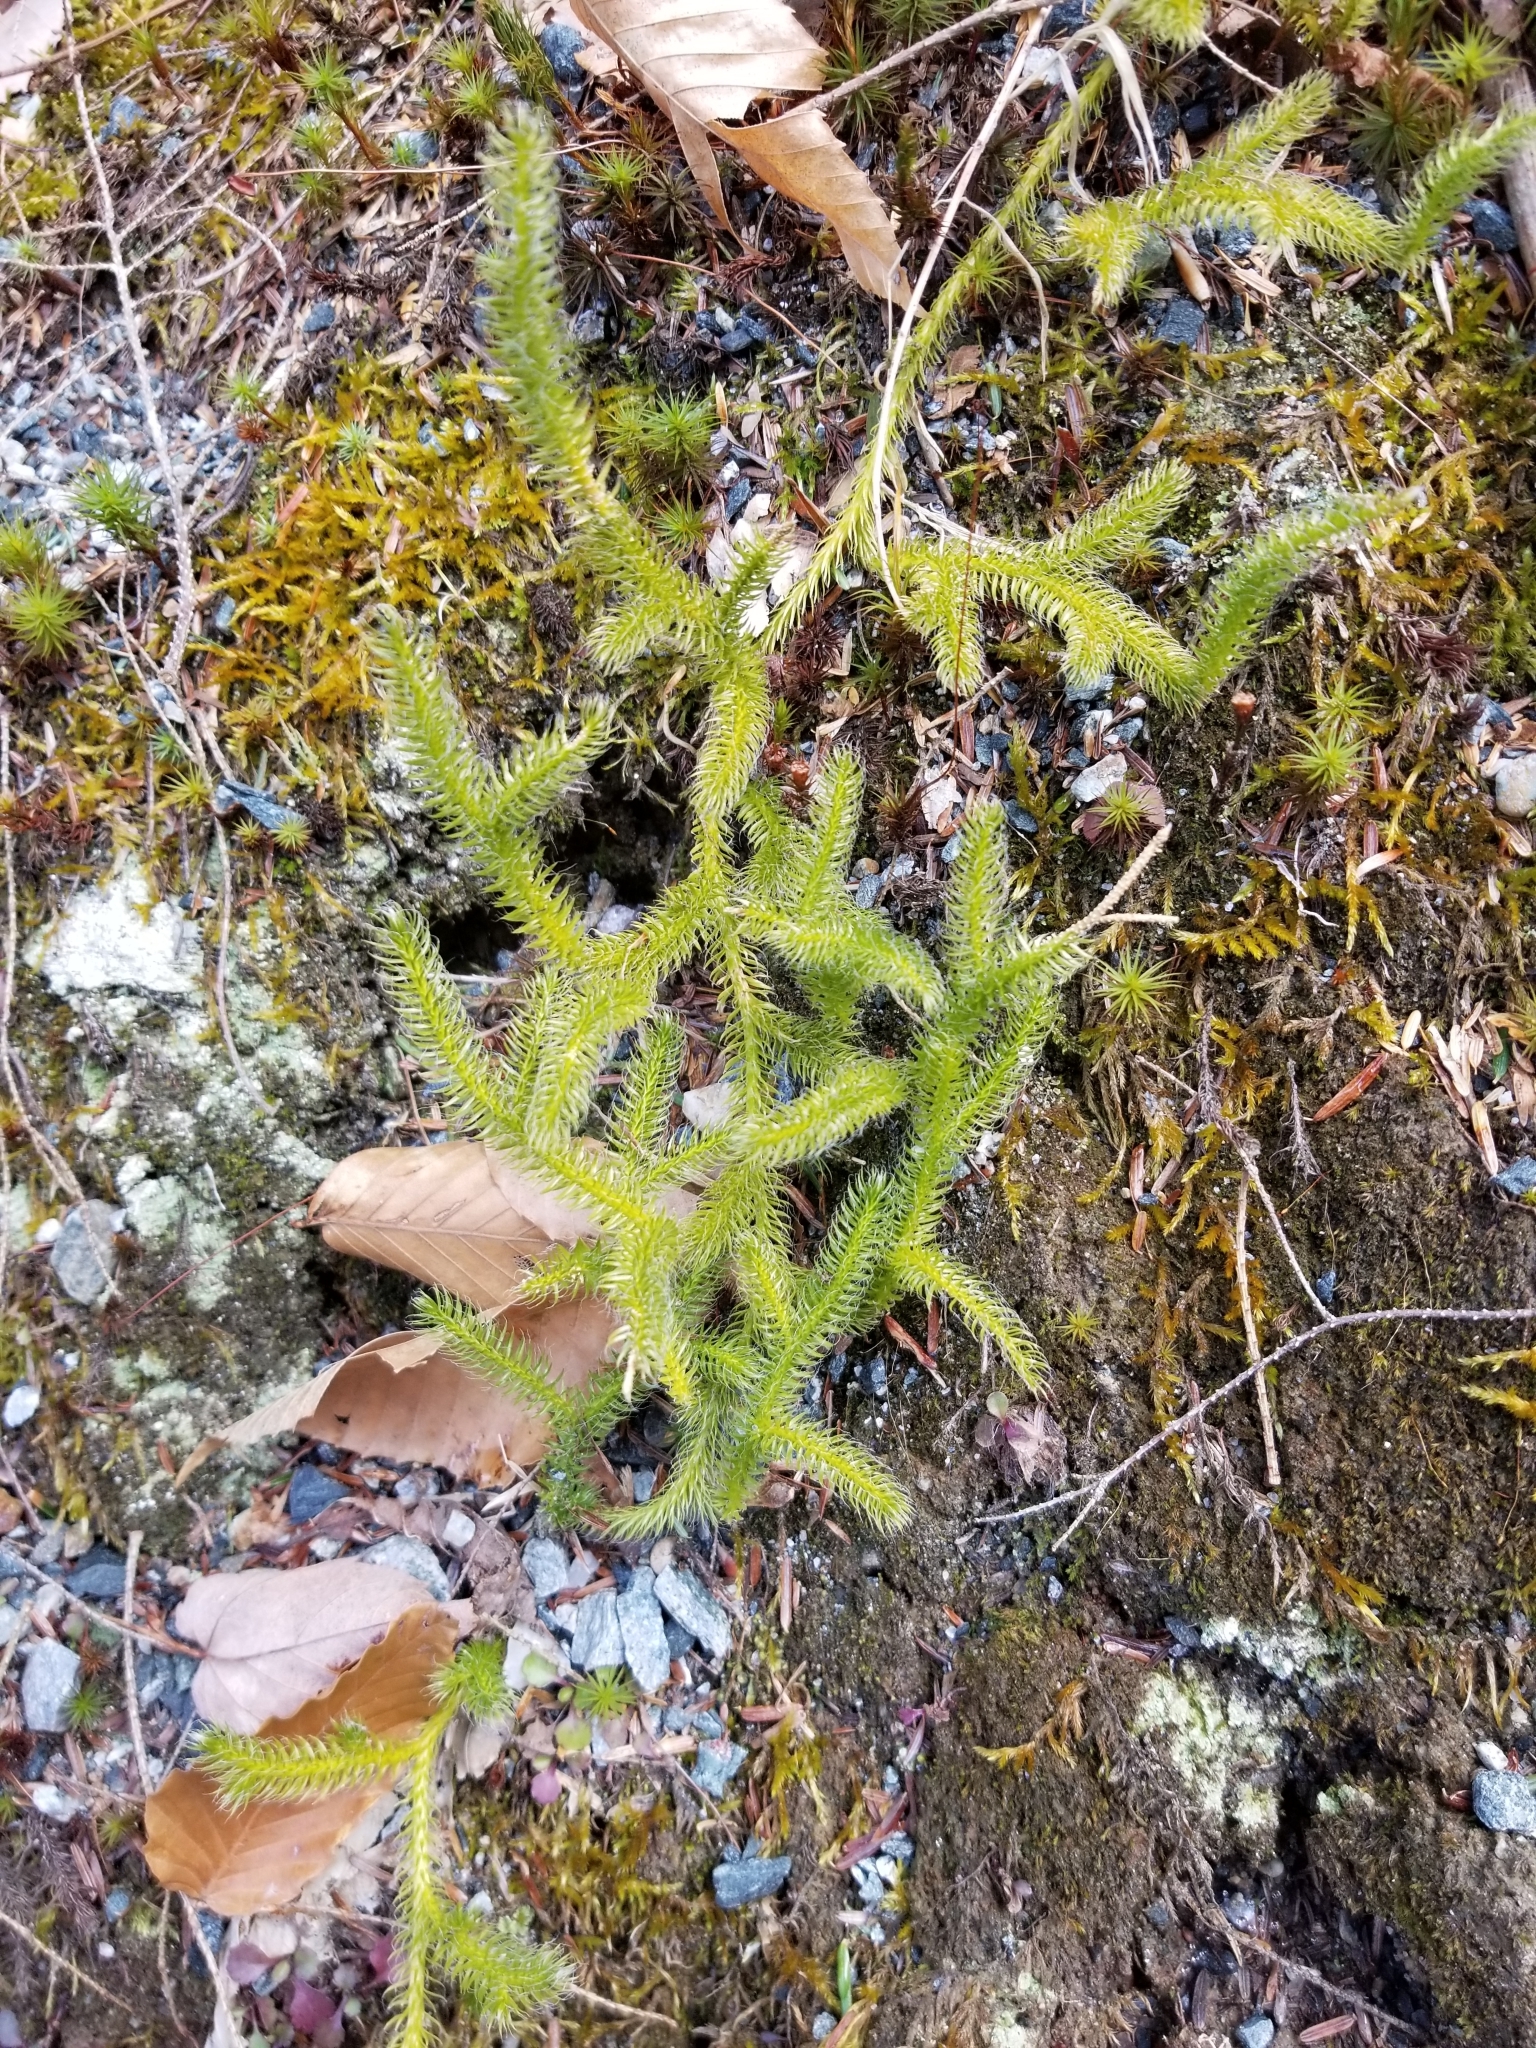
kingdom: Plantae
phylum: Tracheophyta
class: Lycopodiopsida
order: Lycopodiales
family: Lycopodiaceae
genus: Lycopodium
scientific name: Lycopodium clavatum
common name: Stag's-horn clubmoss
